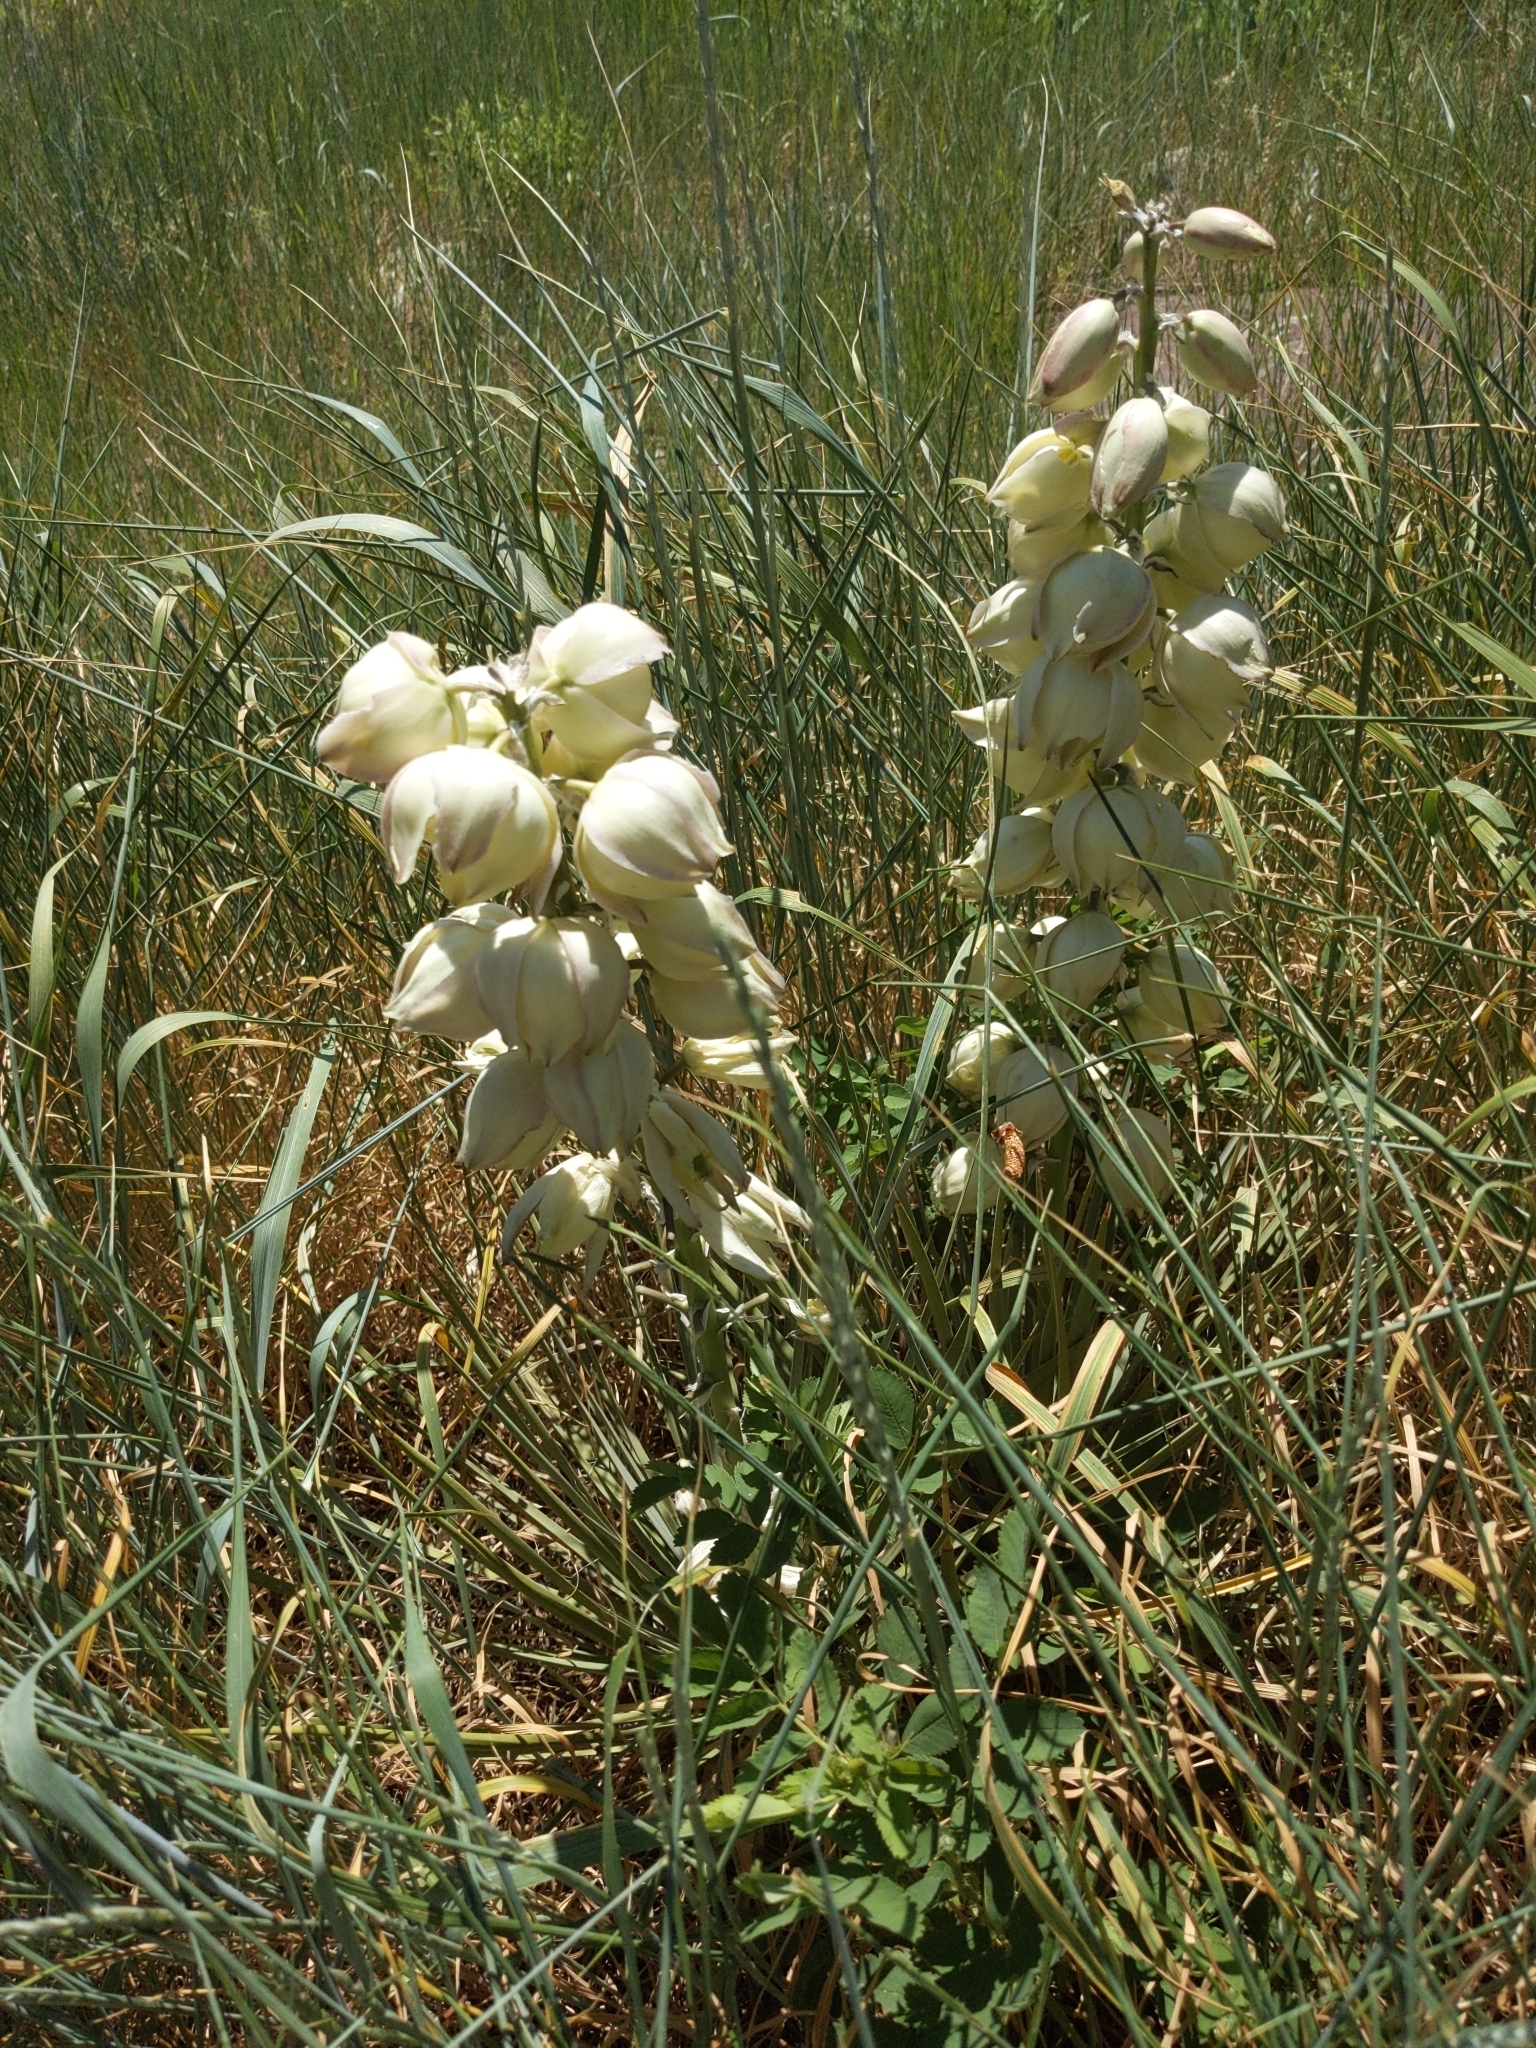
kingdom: Plantae
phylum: Tracheophyta
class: Liliopsida
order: Asparagales
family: Asparagaceae
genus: Yucca
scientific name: Yucca glauca
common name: Great plains yucca
